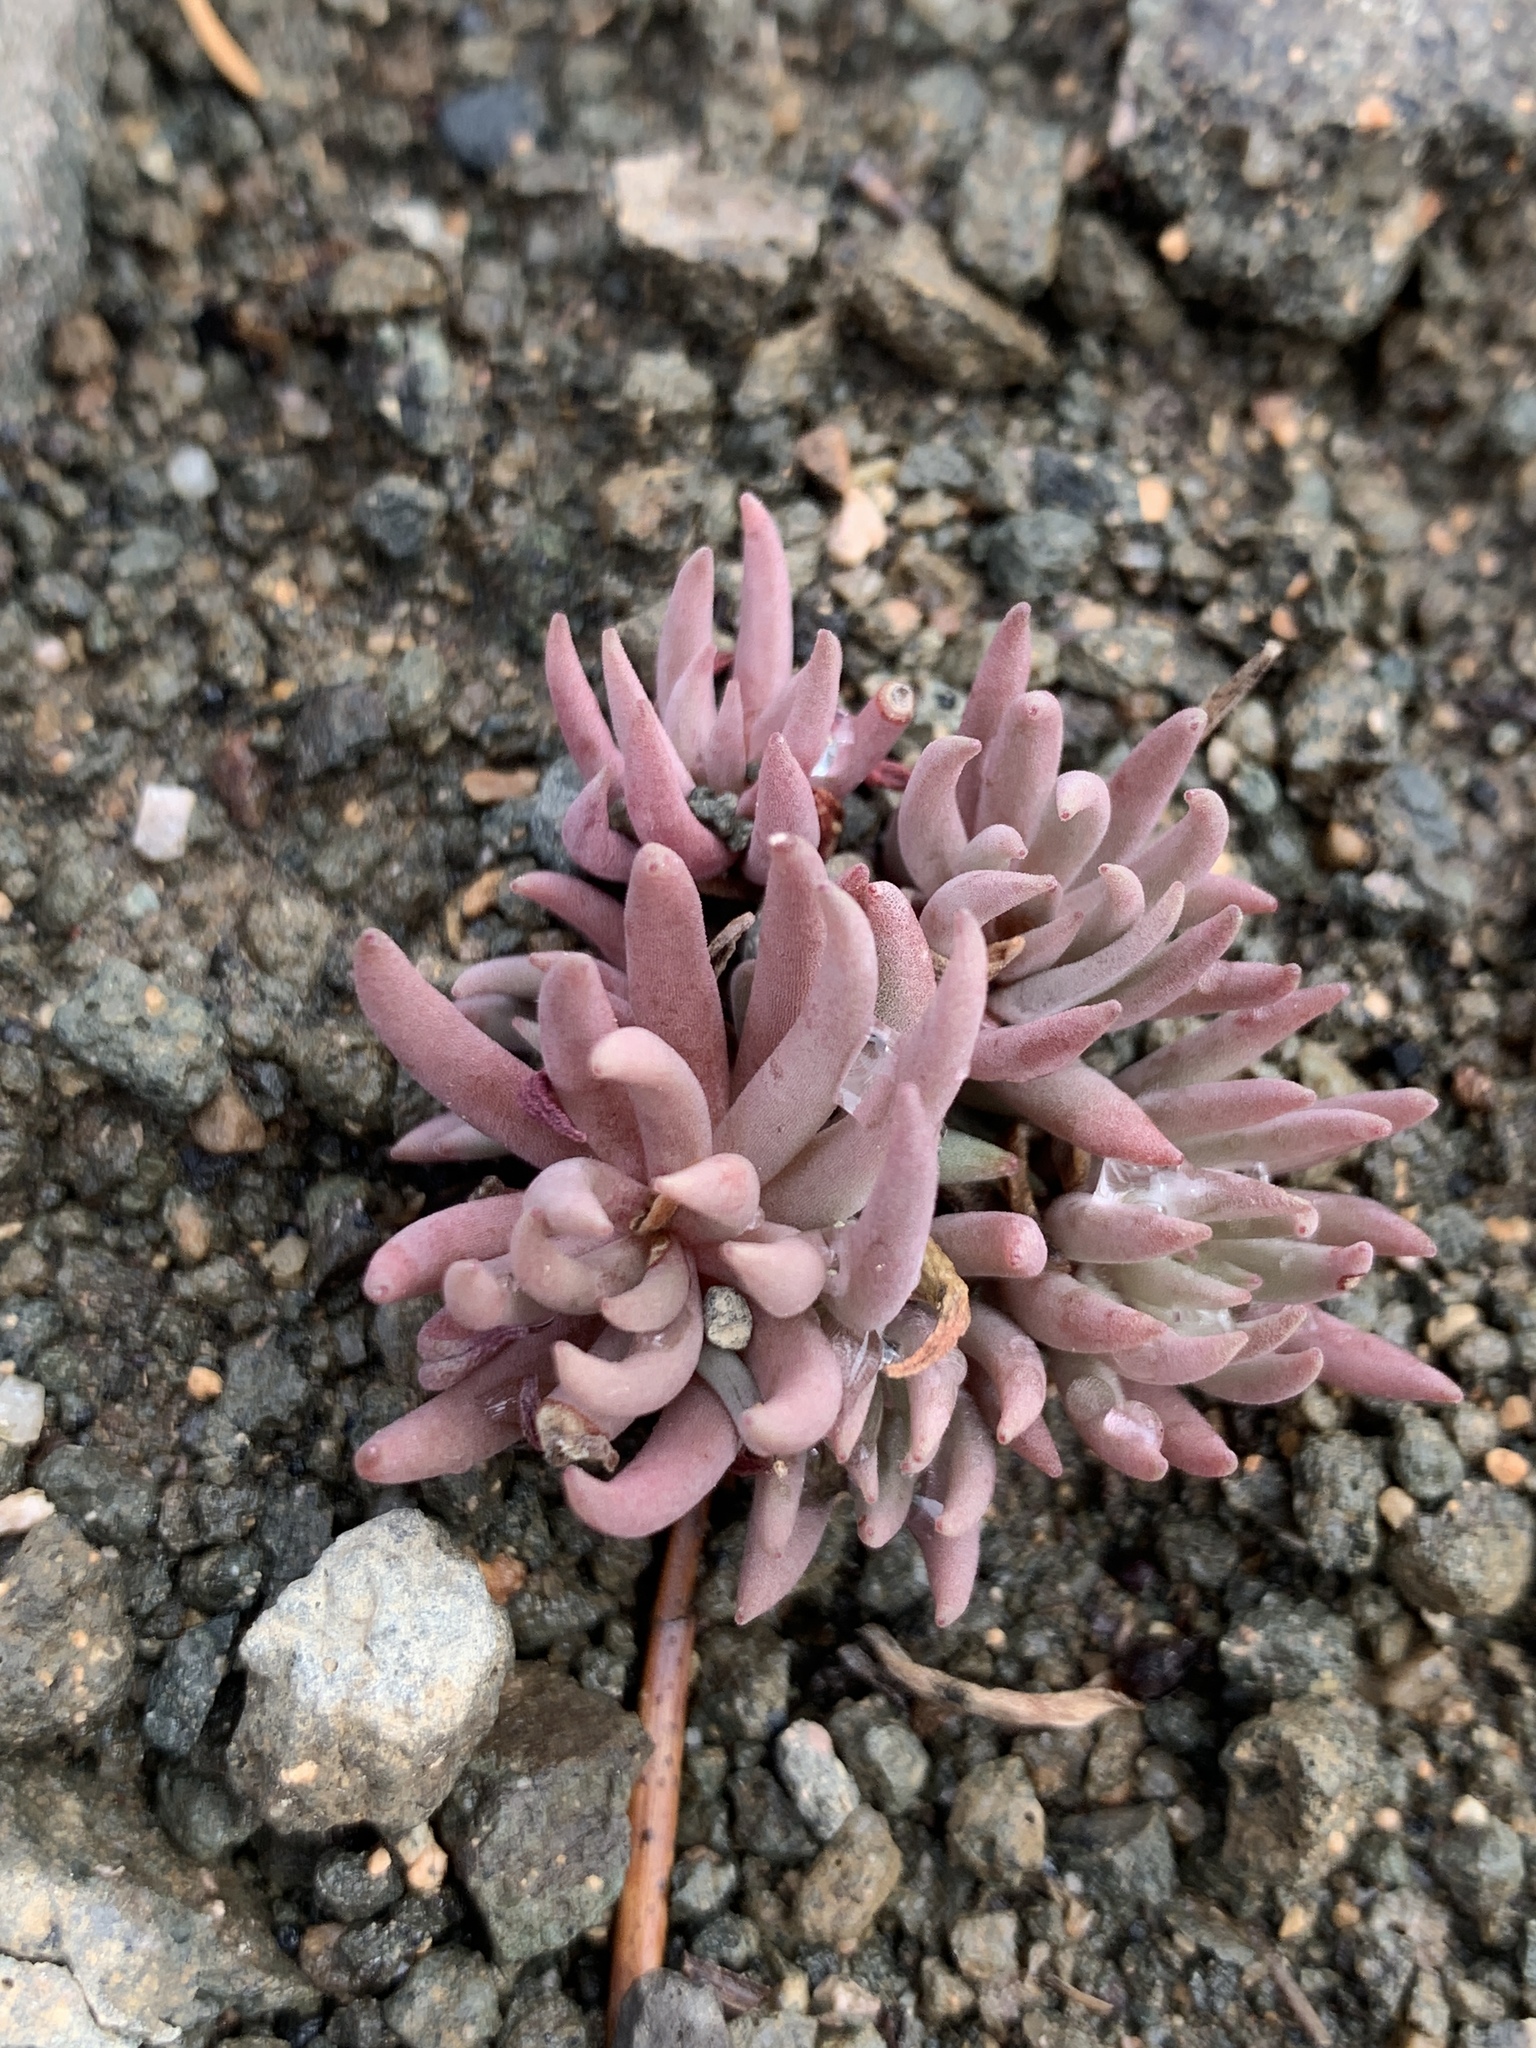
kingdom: Plantae
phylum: Tracheophyta
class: Magnoliopsida
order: Saxifragales
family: Crassulaceae
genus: Sedum
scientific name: Sedum lanceolatum
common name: Common stonecrop
